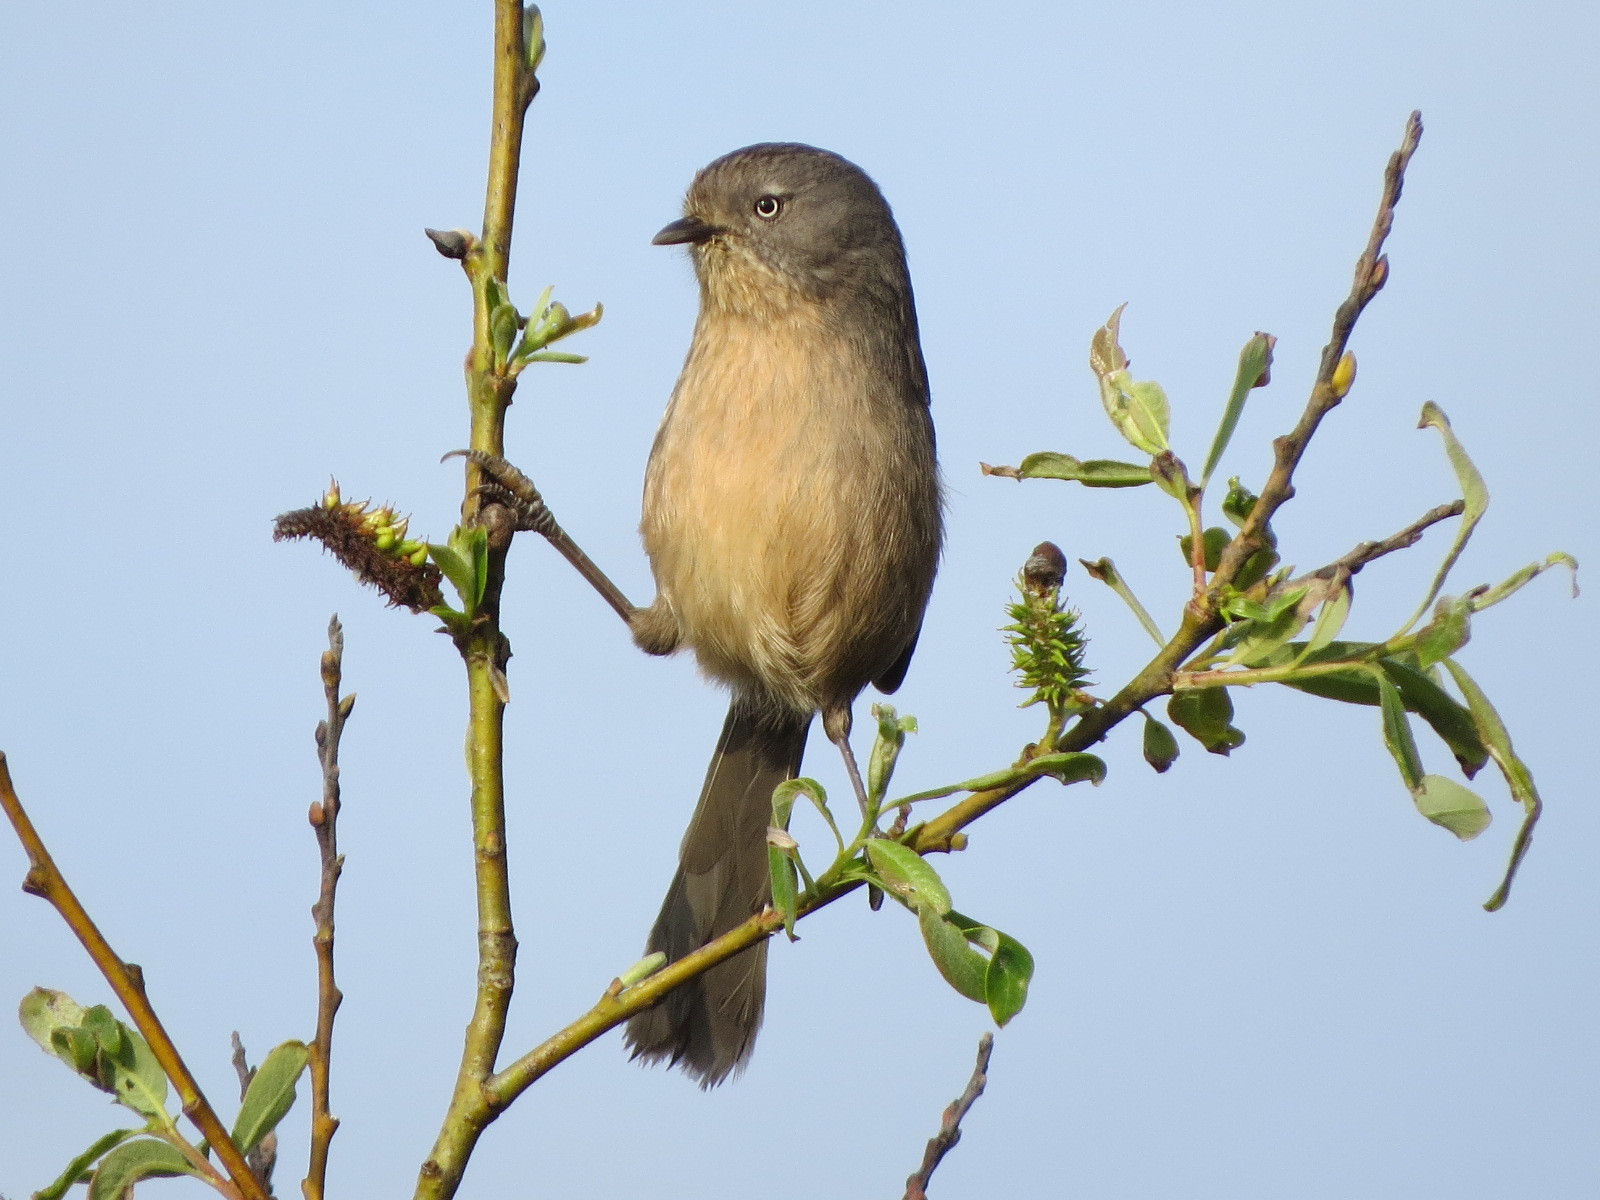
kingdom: Animalia
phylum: Chordata
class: Aves
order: Passeriformes
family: Sylviidae
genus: Chamaea
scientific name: Chamaea fasciata
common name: Wrentit
